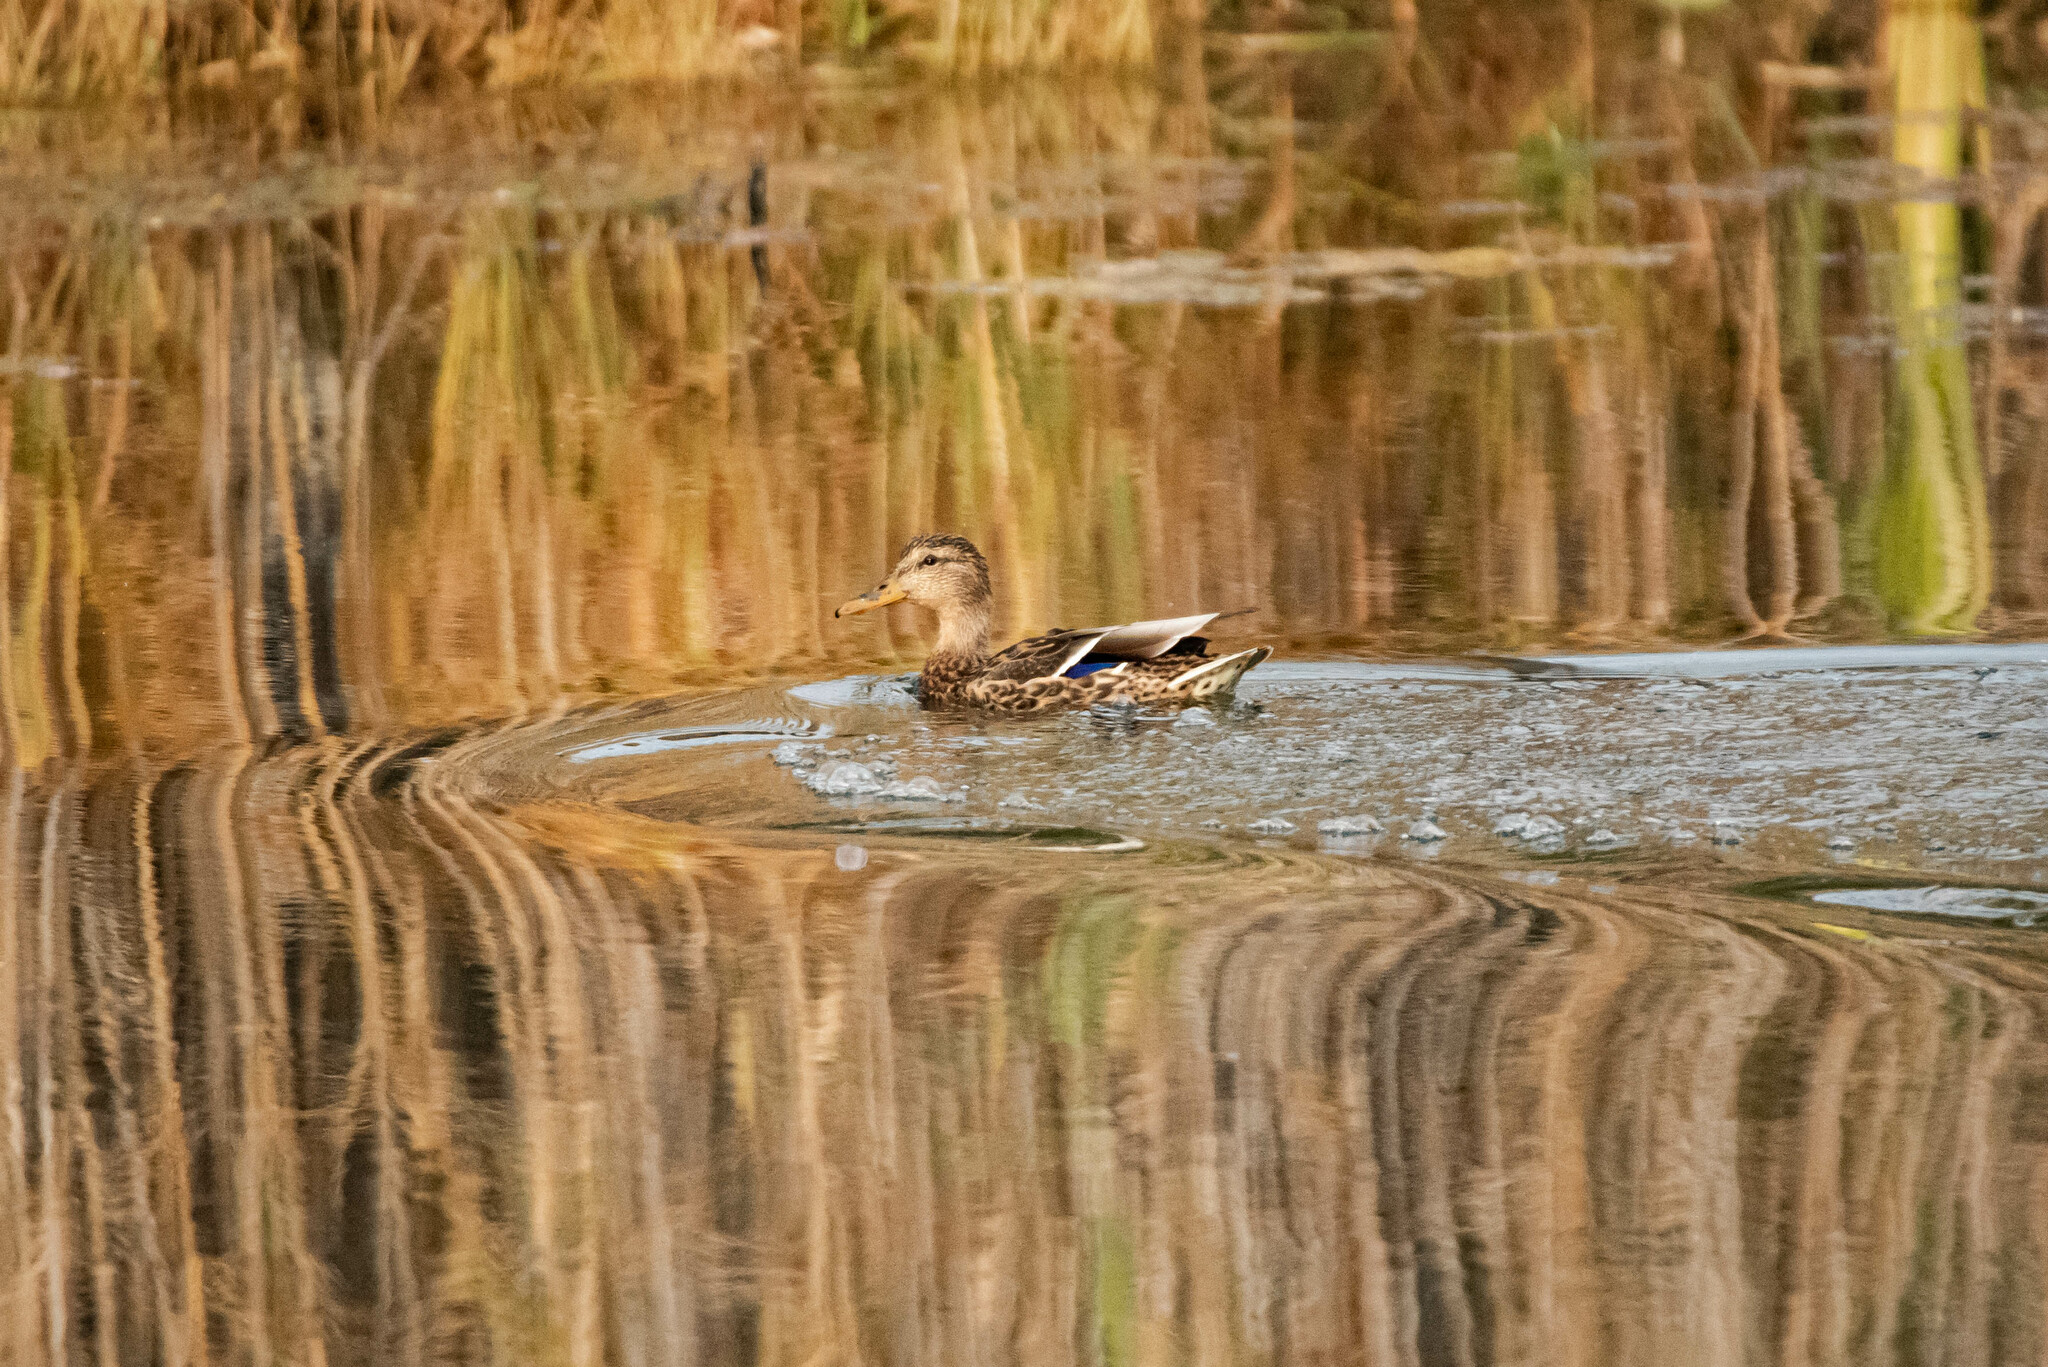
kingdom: Animalia
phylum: Chordata
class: Aves
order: Anseriformes
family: Anatidae
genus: Anas
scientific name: Anas platyrhynchos
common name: Mallard
